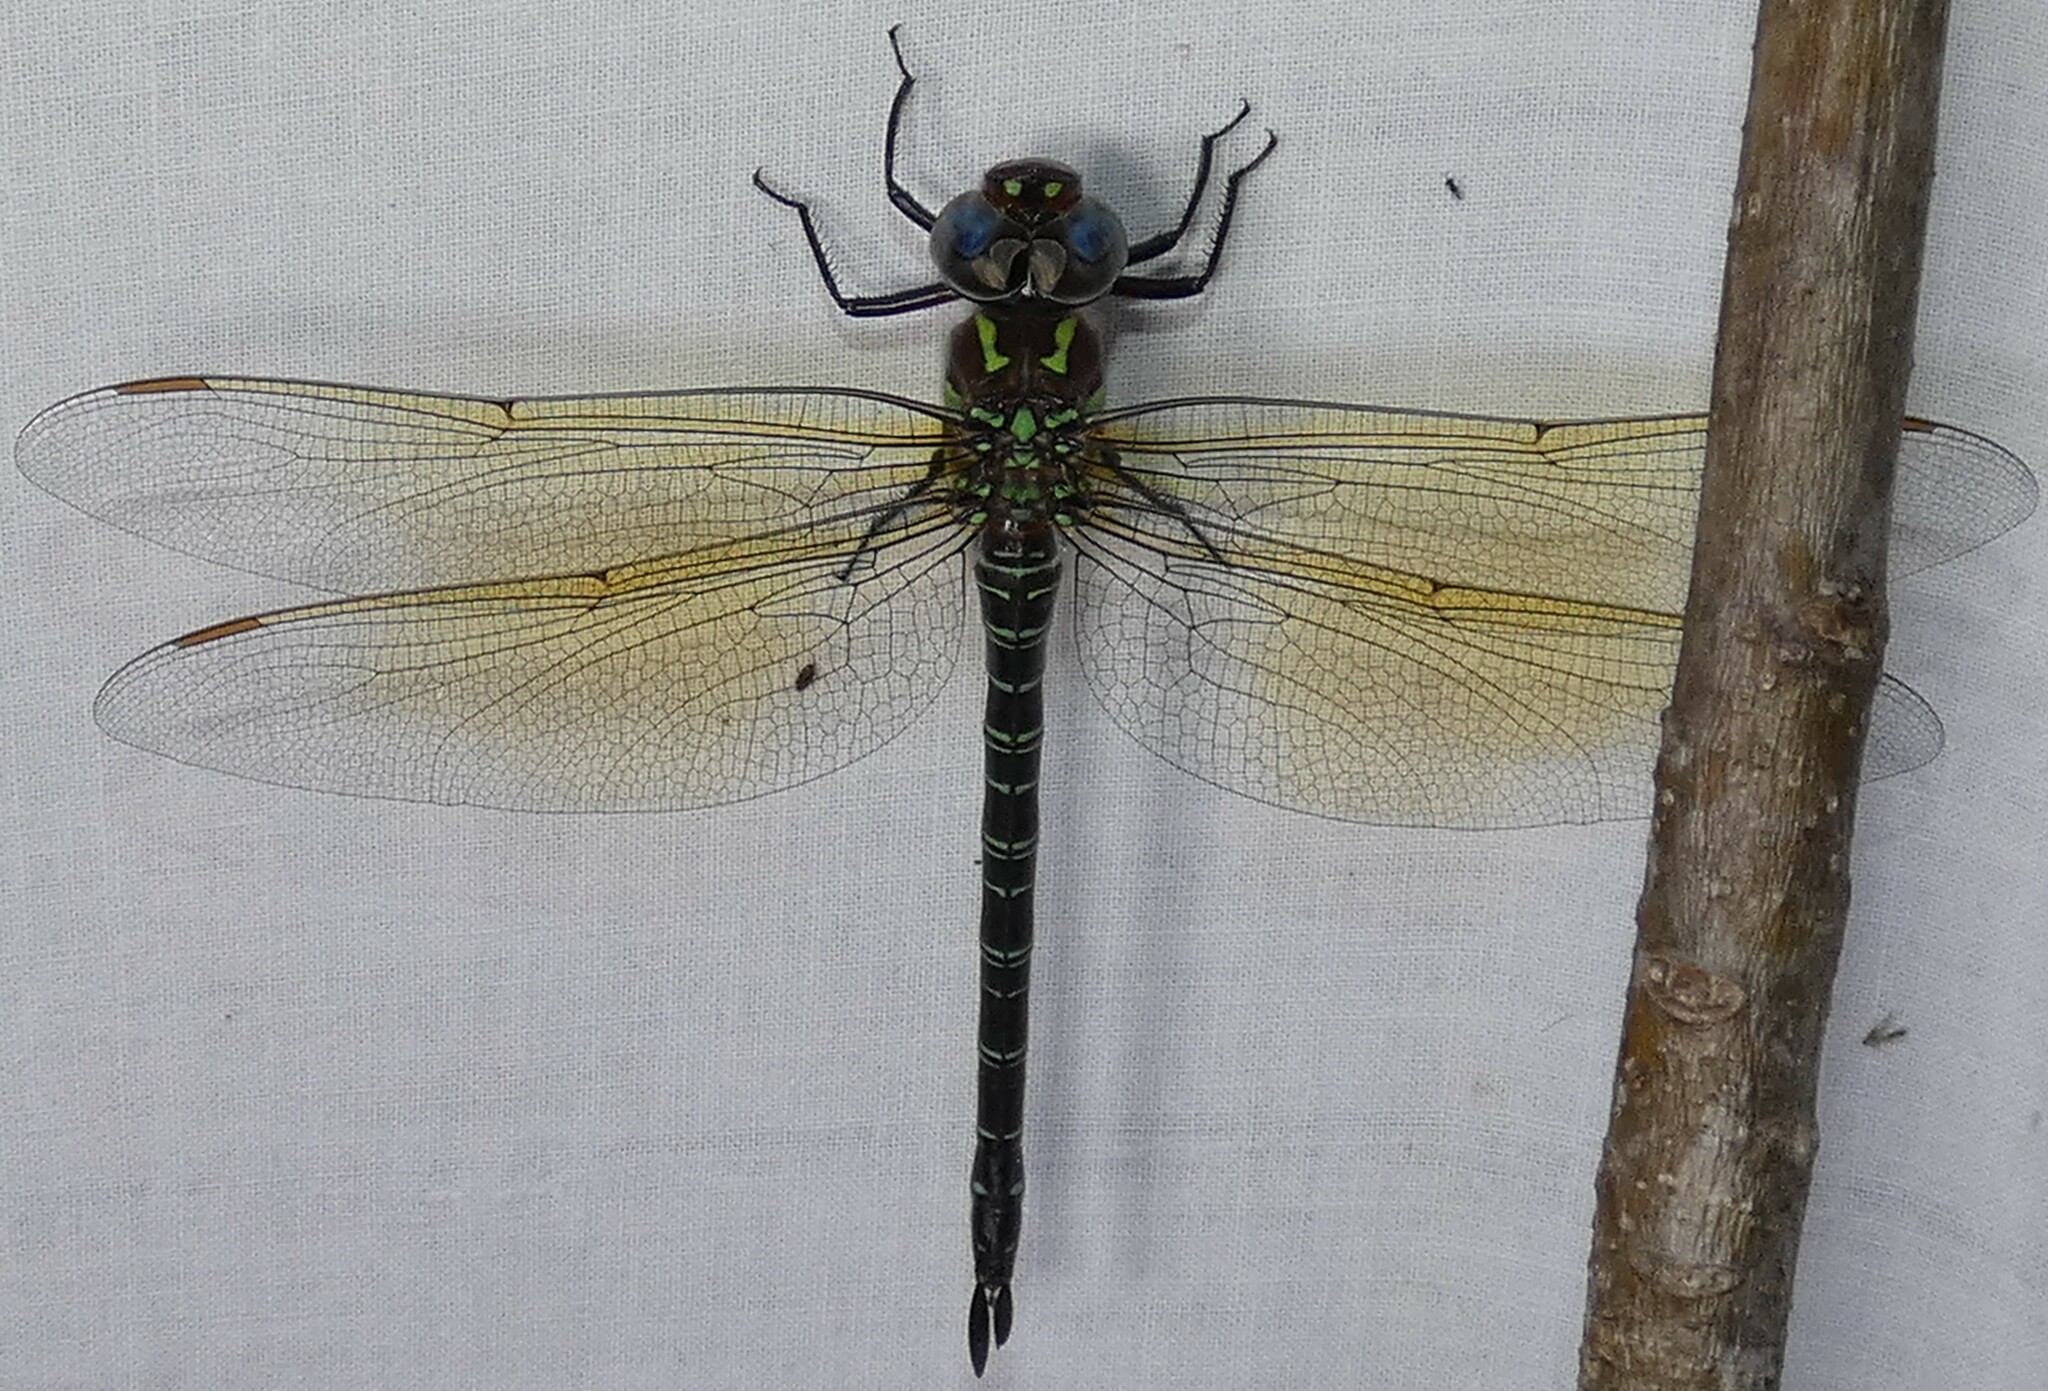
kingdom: Animalia
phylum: Arthropoda
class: Insecta
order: Odonata
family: Aeshnidae
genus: Epiaeschna
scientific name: Epiaeschna heros
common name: Swamp darner
